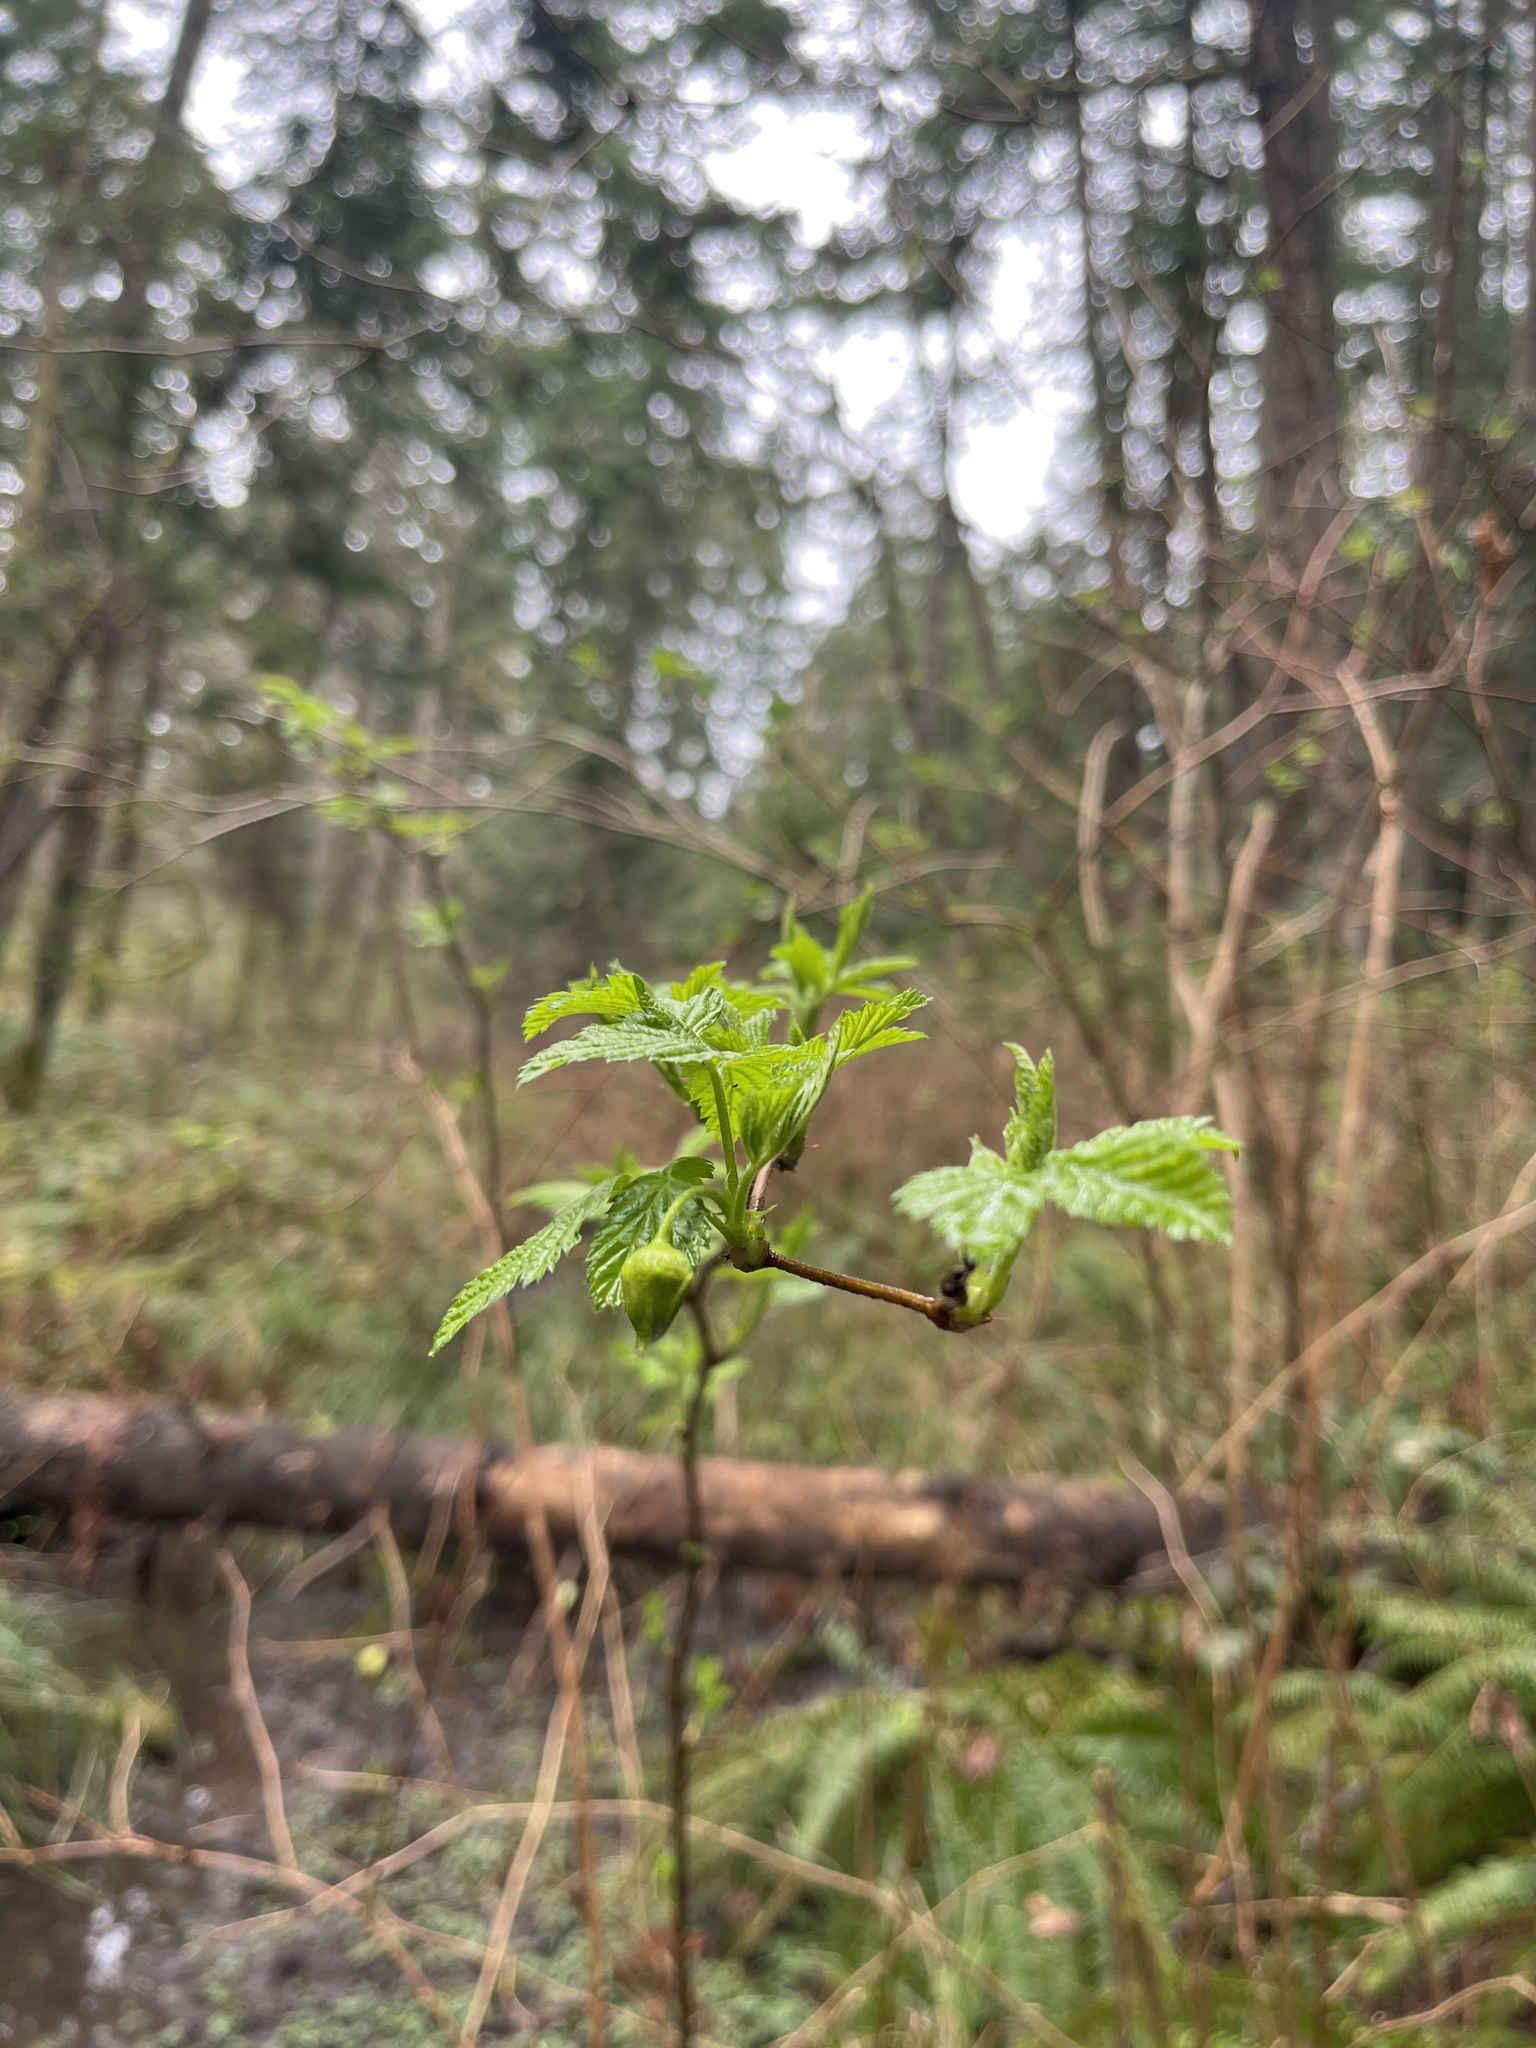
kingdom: Plantae
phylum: Tracheophyta
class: Magnoliopsida
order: Rosales
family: Rosaceae
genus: Rubus
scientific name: Rubus spectabilis
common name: Salmonberry
